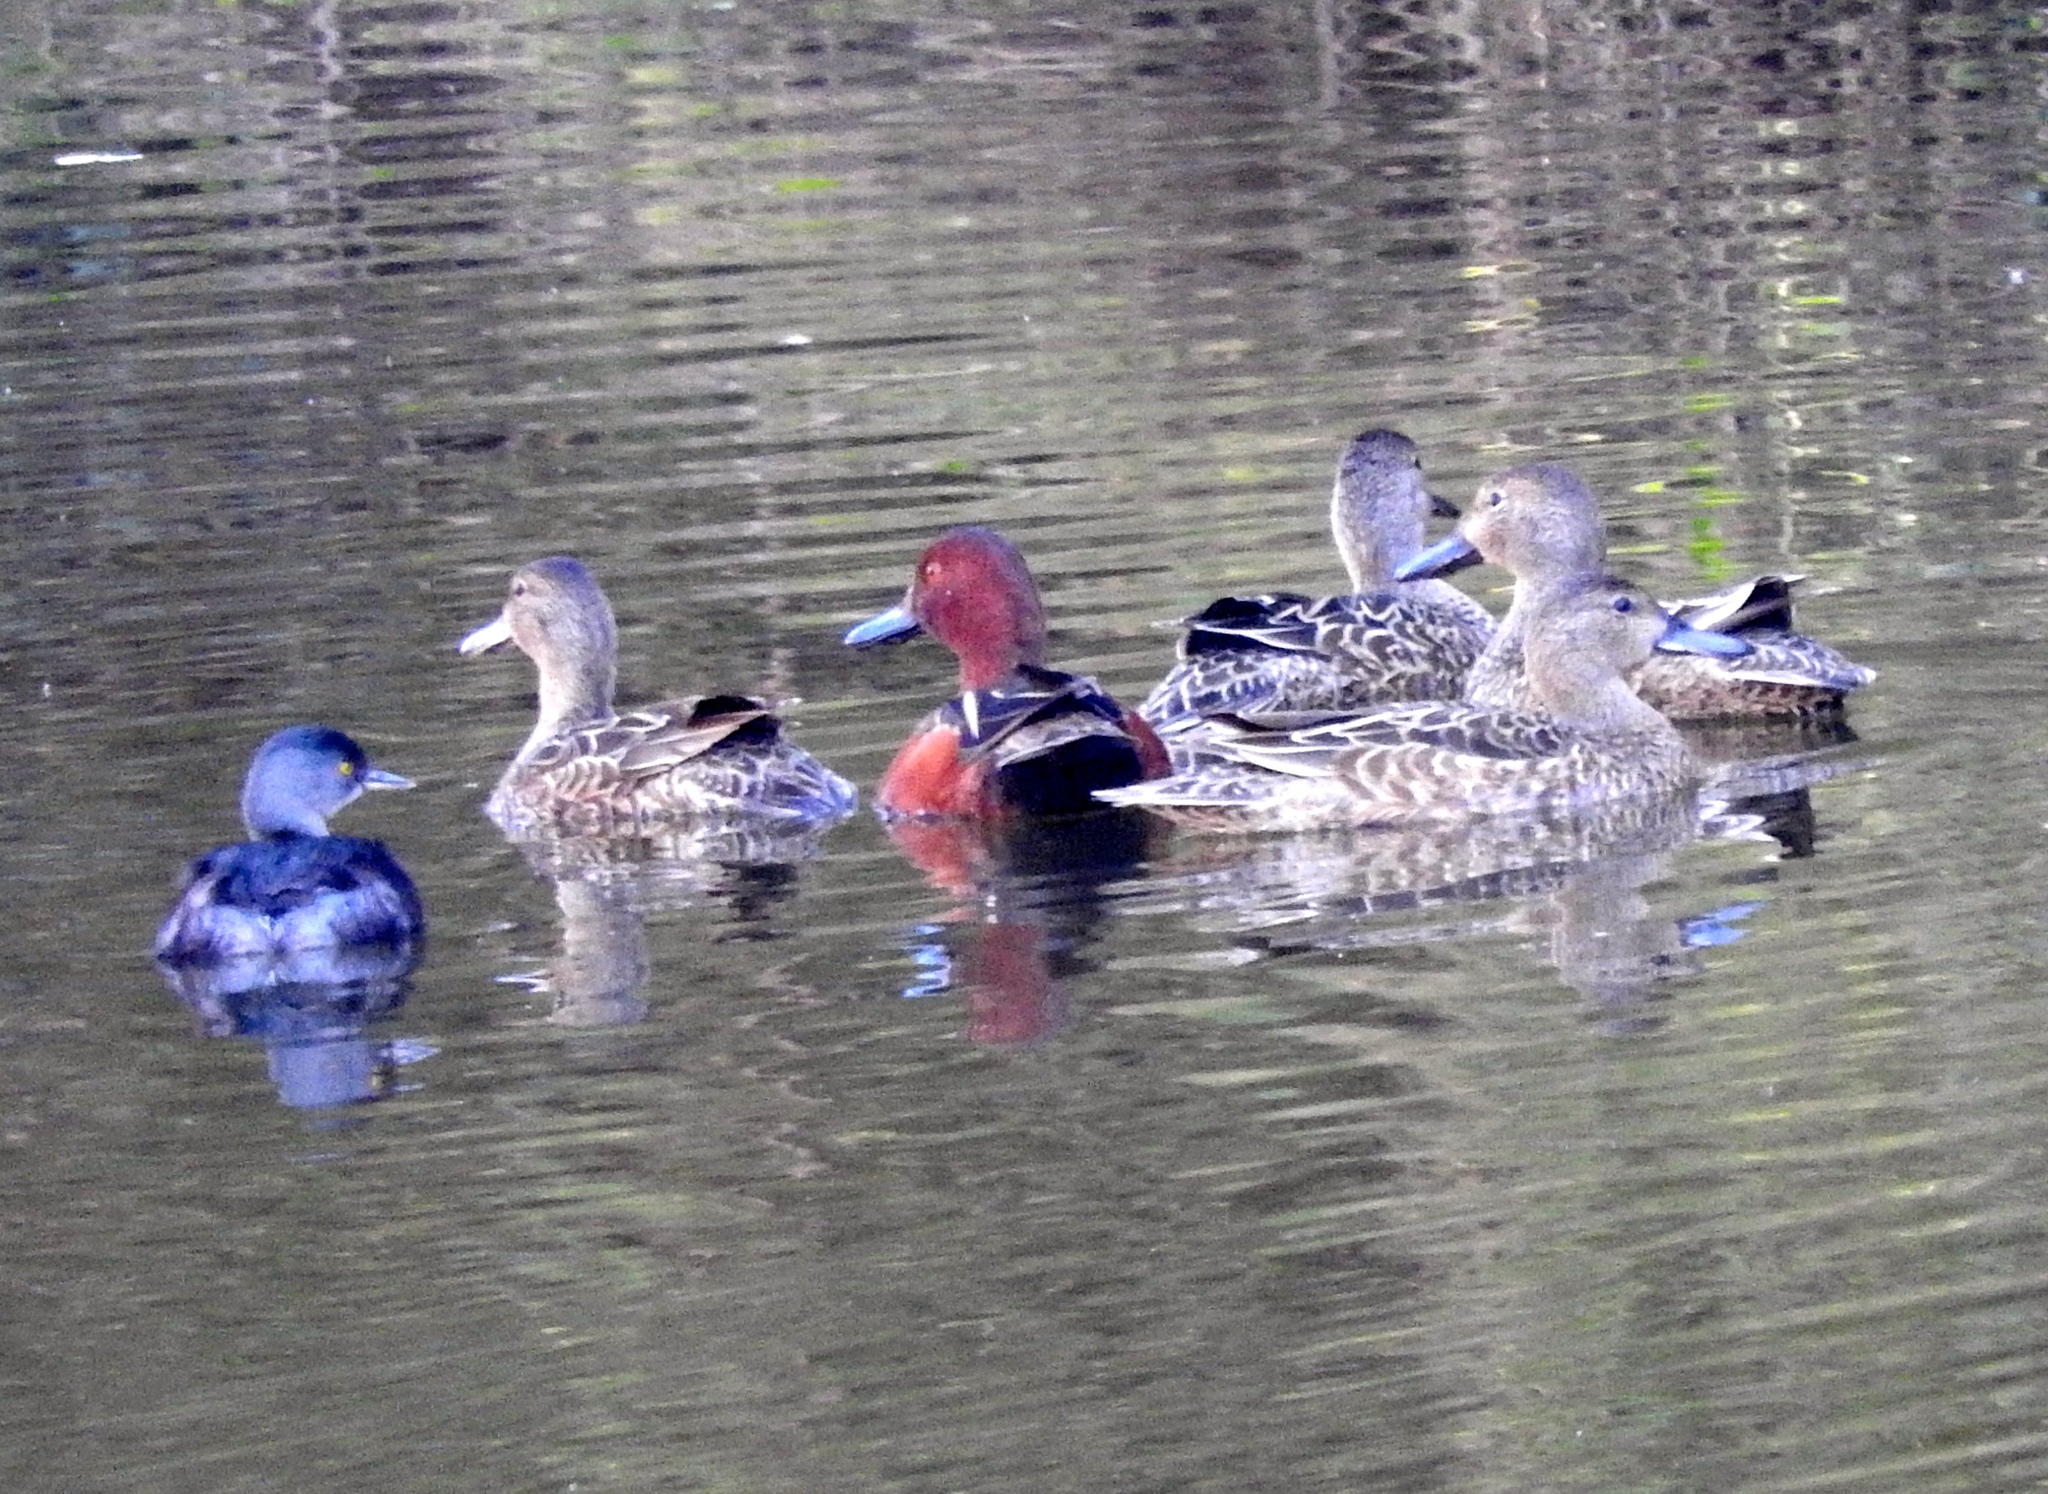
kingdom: Animalia
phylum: Chordata
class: Aves
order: Anseriformes
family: Anatidae
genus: Spatula
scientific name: Spatula cyanoptera
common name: Cinnamon teal
